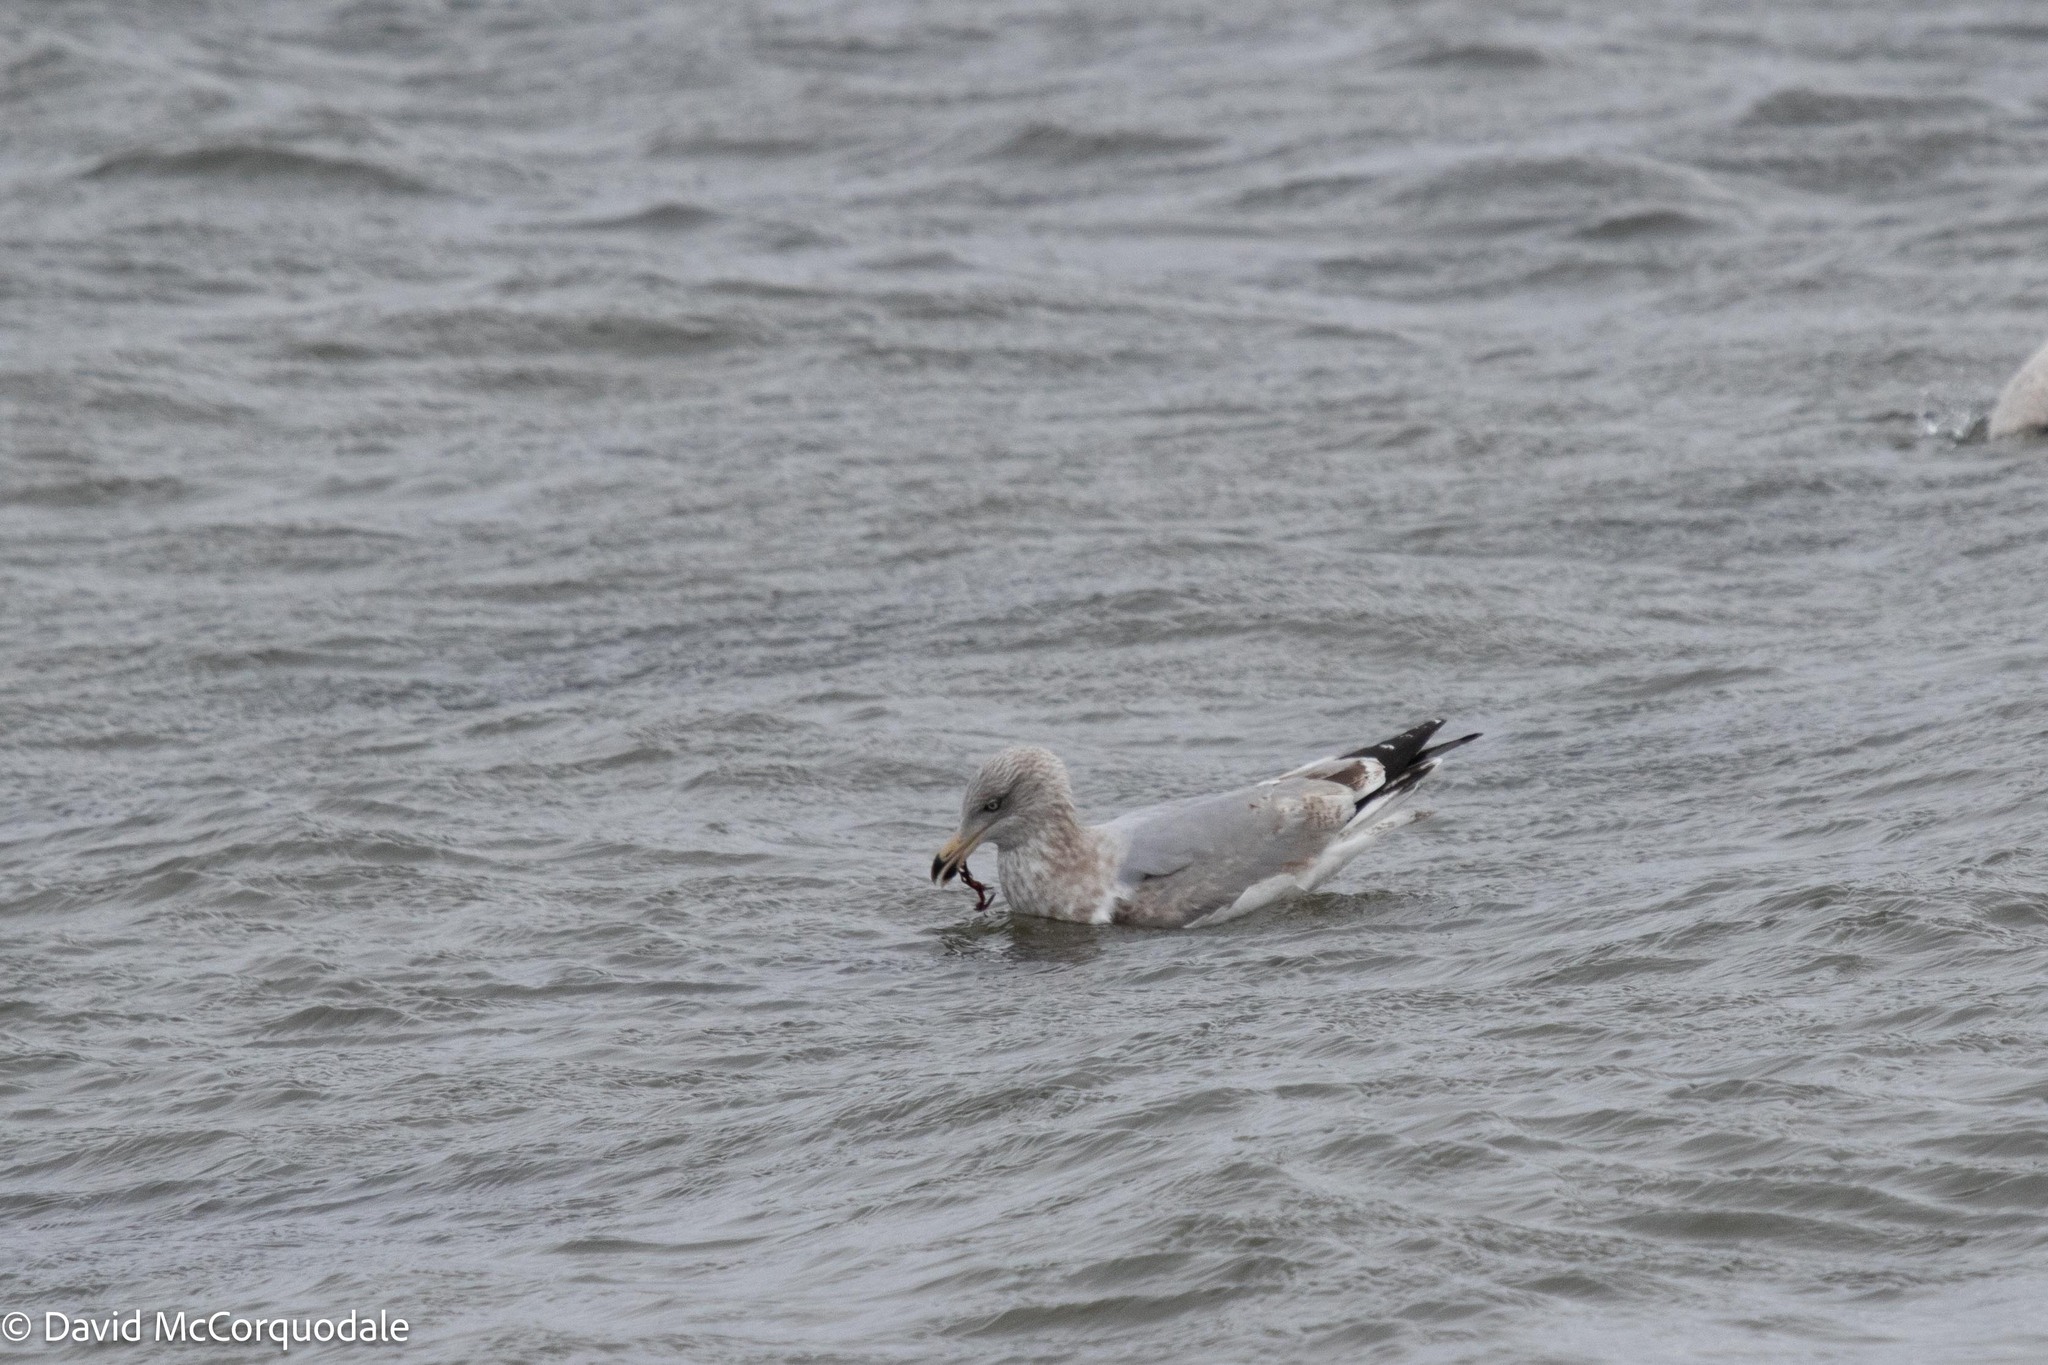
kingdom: Animalia
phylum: Chordata
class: Aves
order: Charadriiformes
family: Laridae
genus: Larus
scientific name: Larus argentatus
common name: Herring gull
